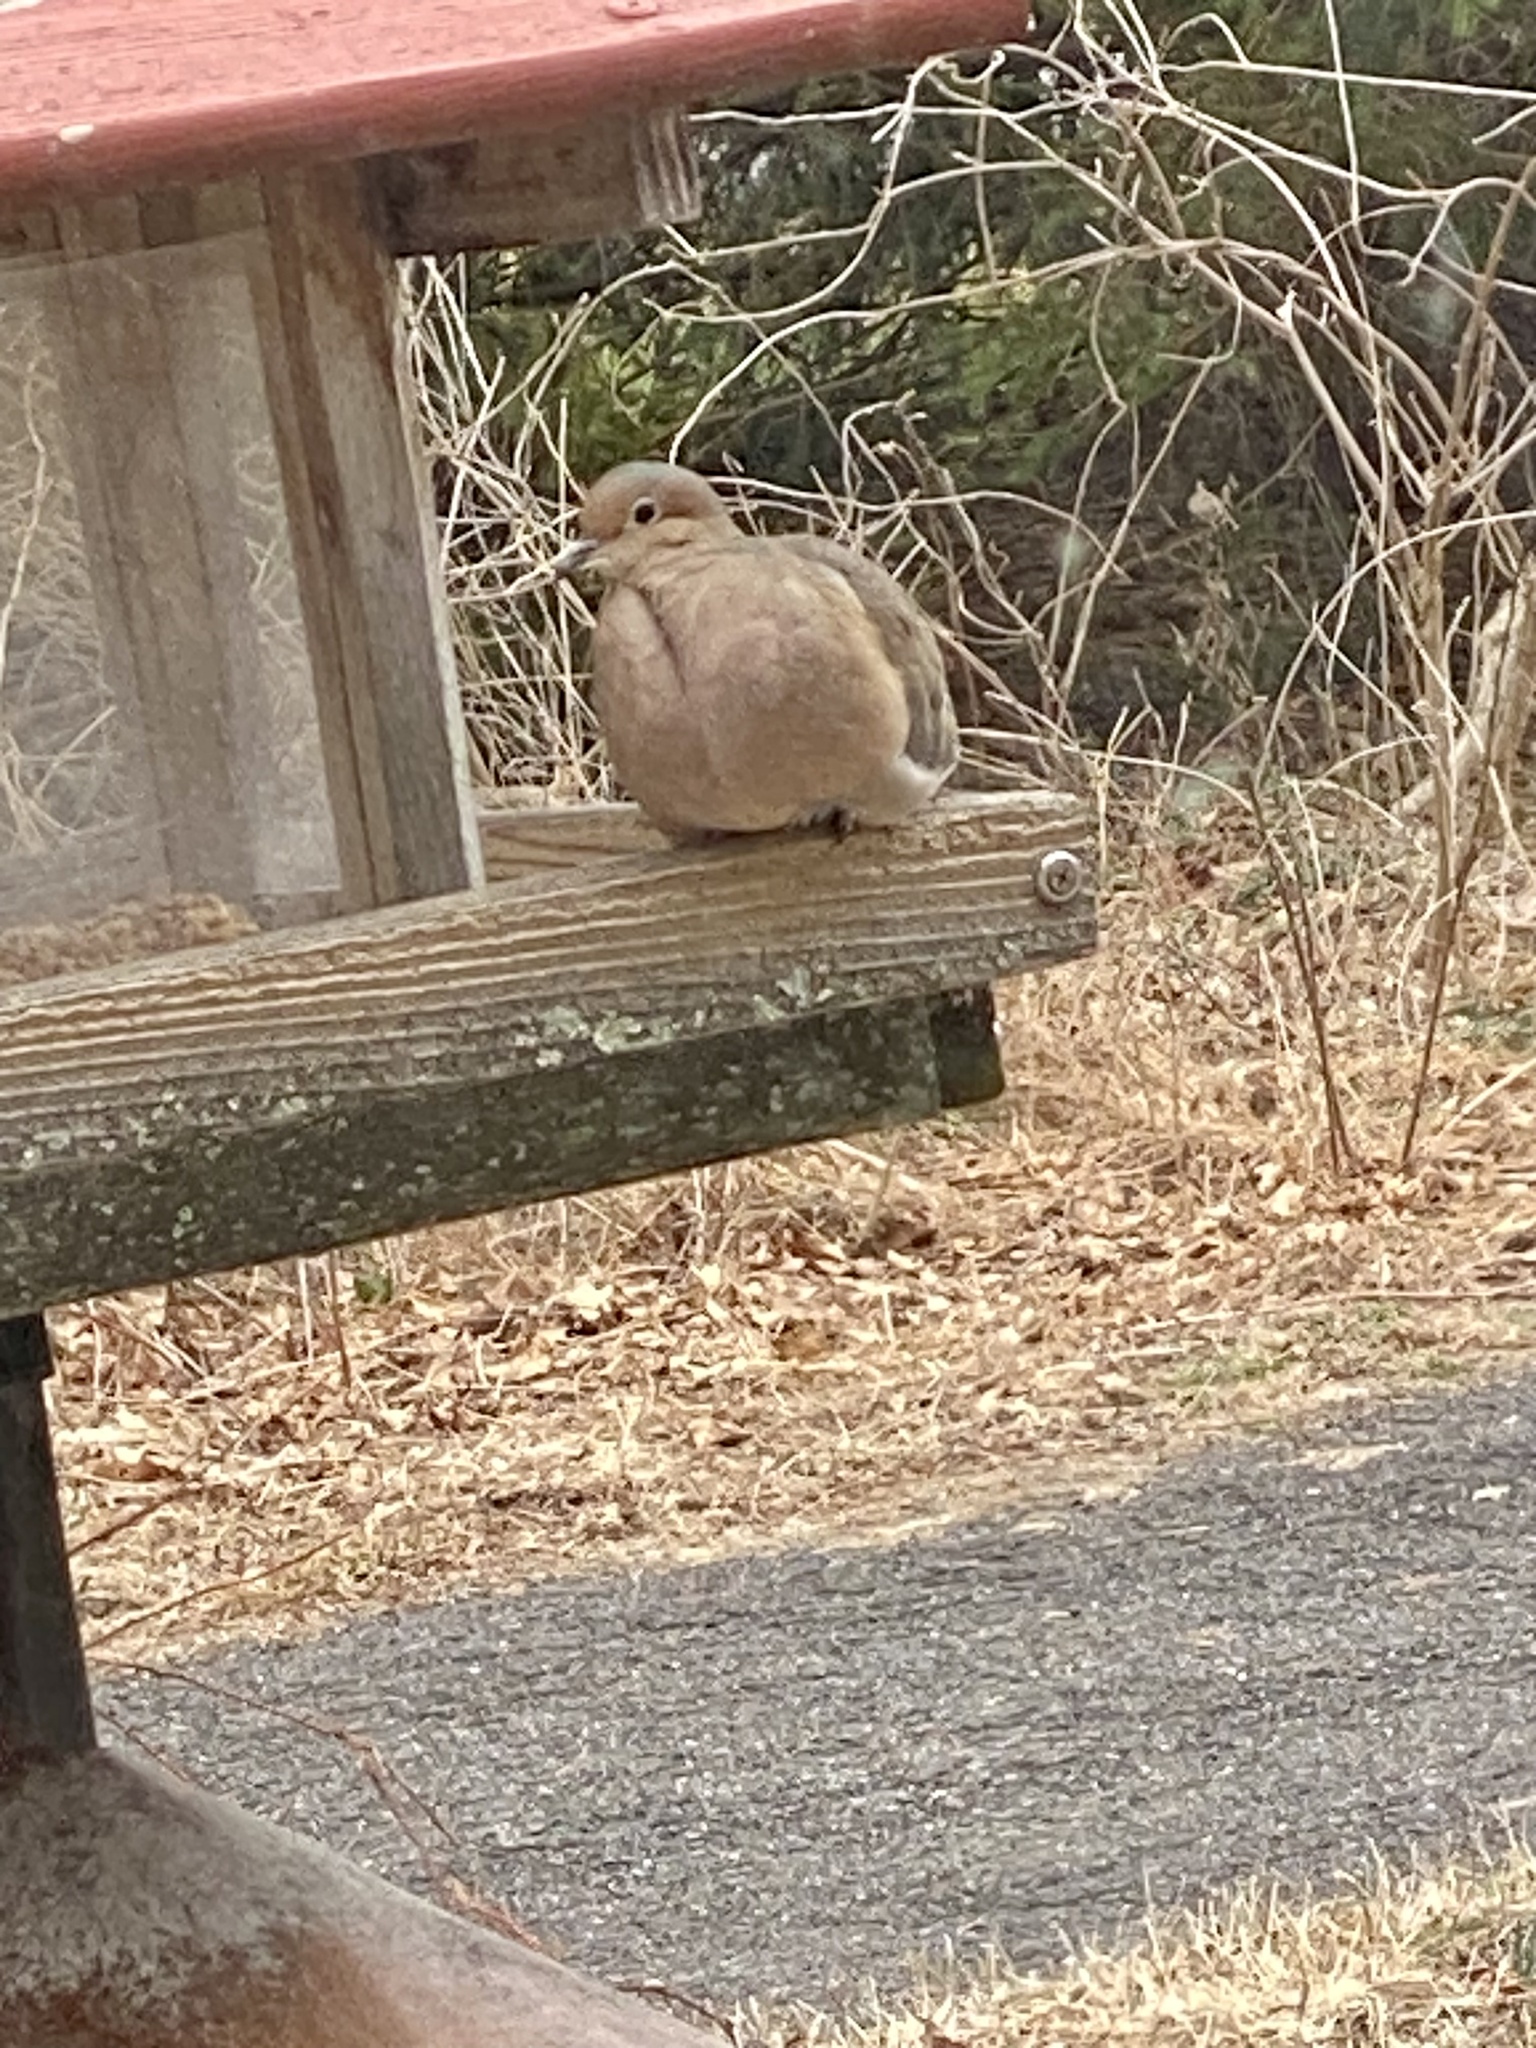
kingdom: Animalia
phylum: Chordata
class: Aves
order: Columbiformes
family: Columbidae
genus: Zenaida
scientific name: Zenaida macroura
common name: Mourning dove
